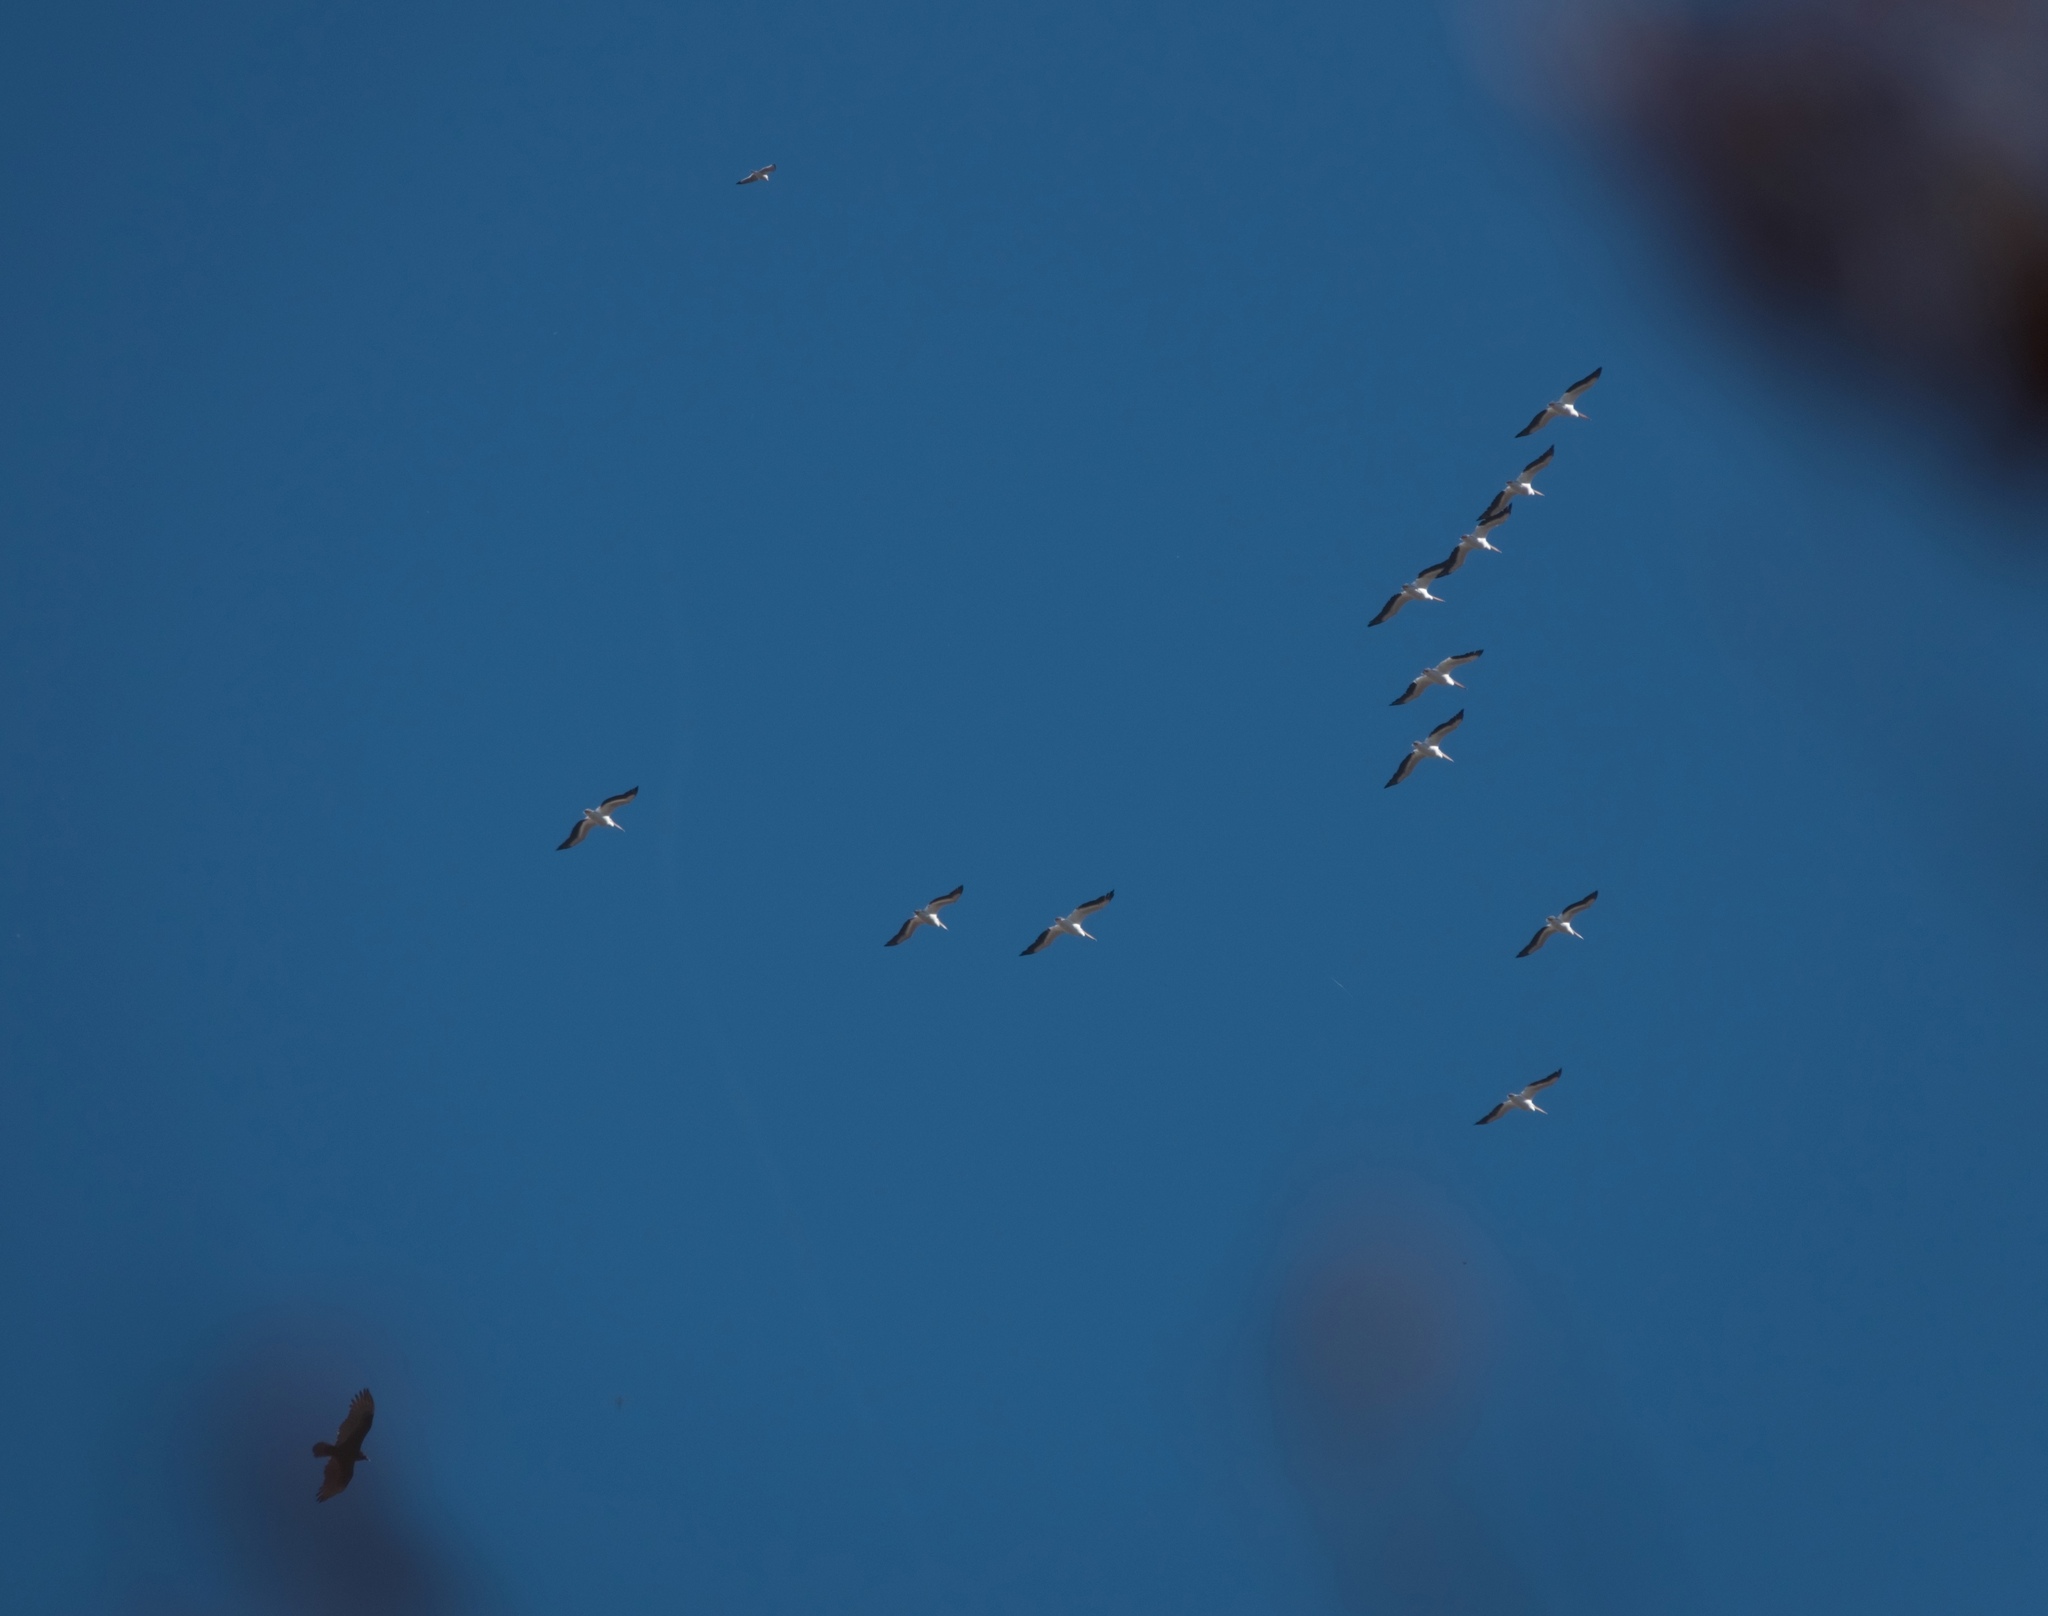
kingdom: Animalia
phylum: Chordata
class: Aves
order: Pelecaniformes
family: Pelecanidae
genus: Pelecanus
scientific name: Pelecanus erythrorhynchos
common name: American white pelican
